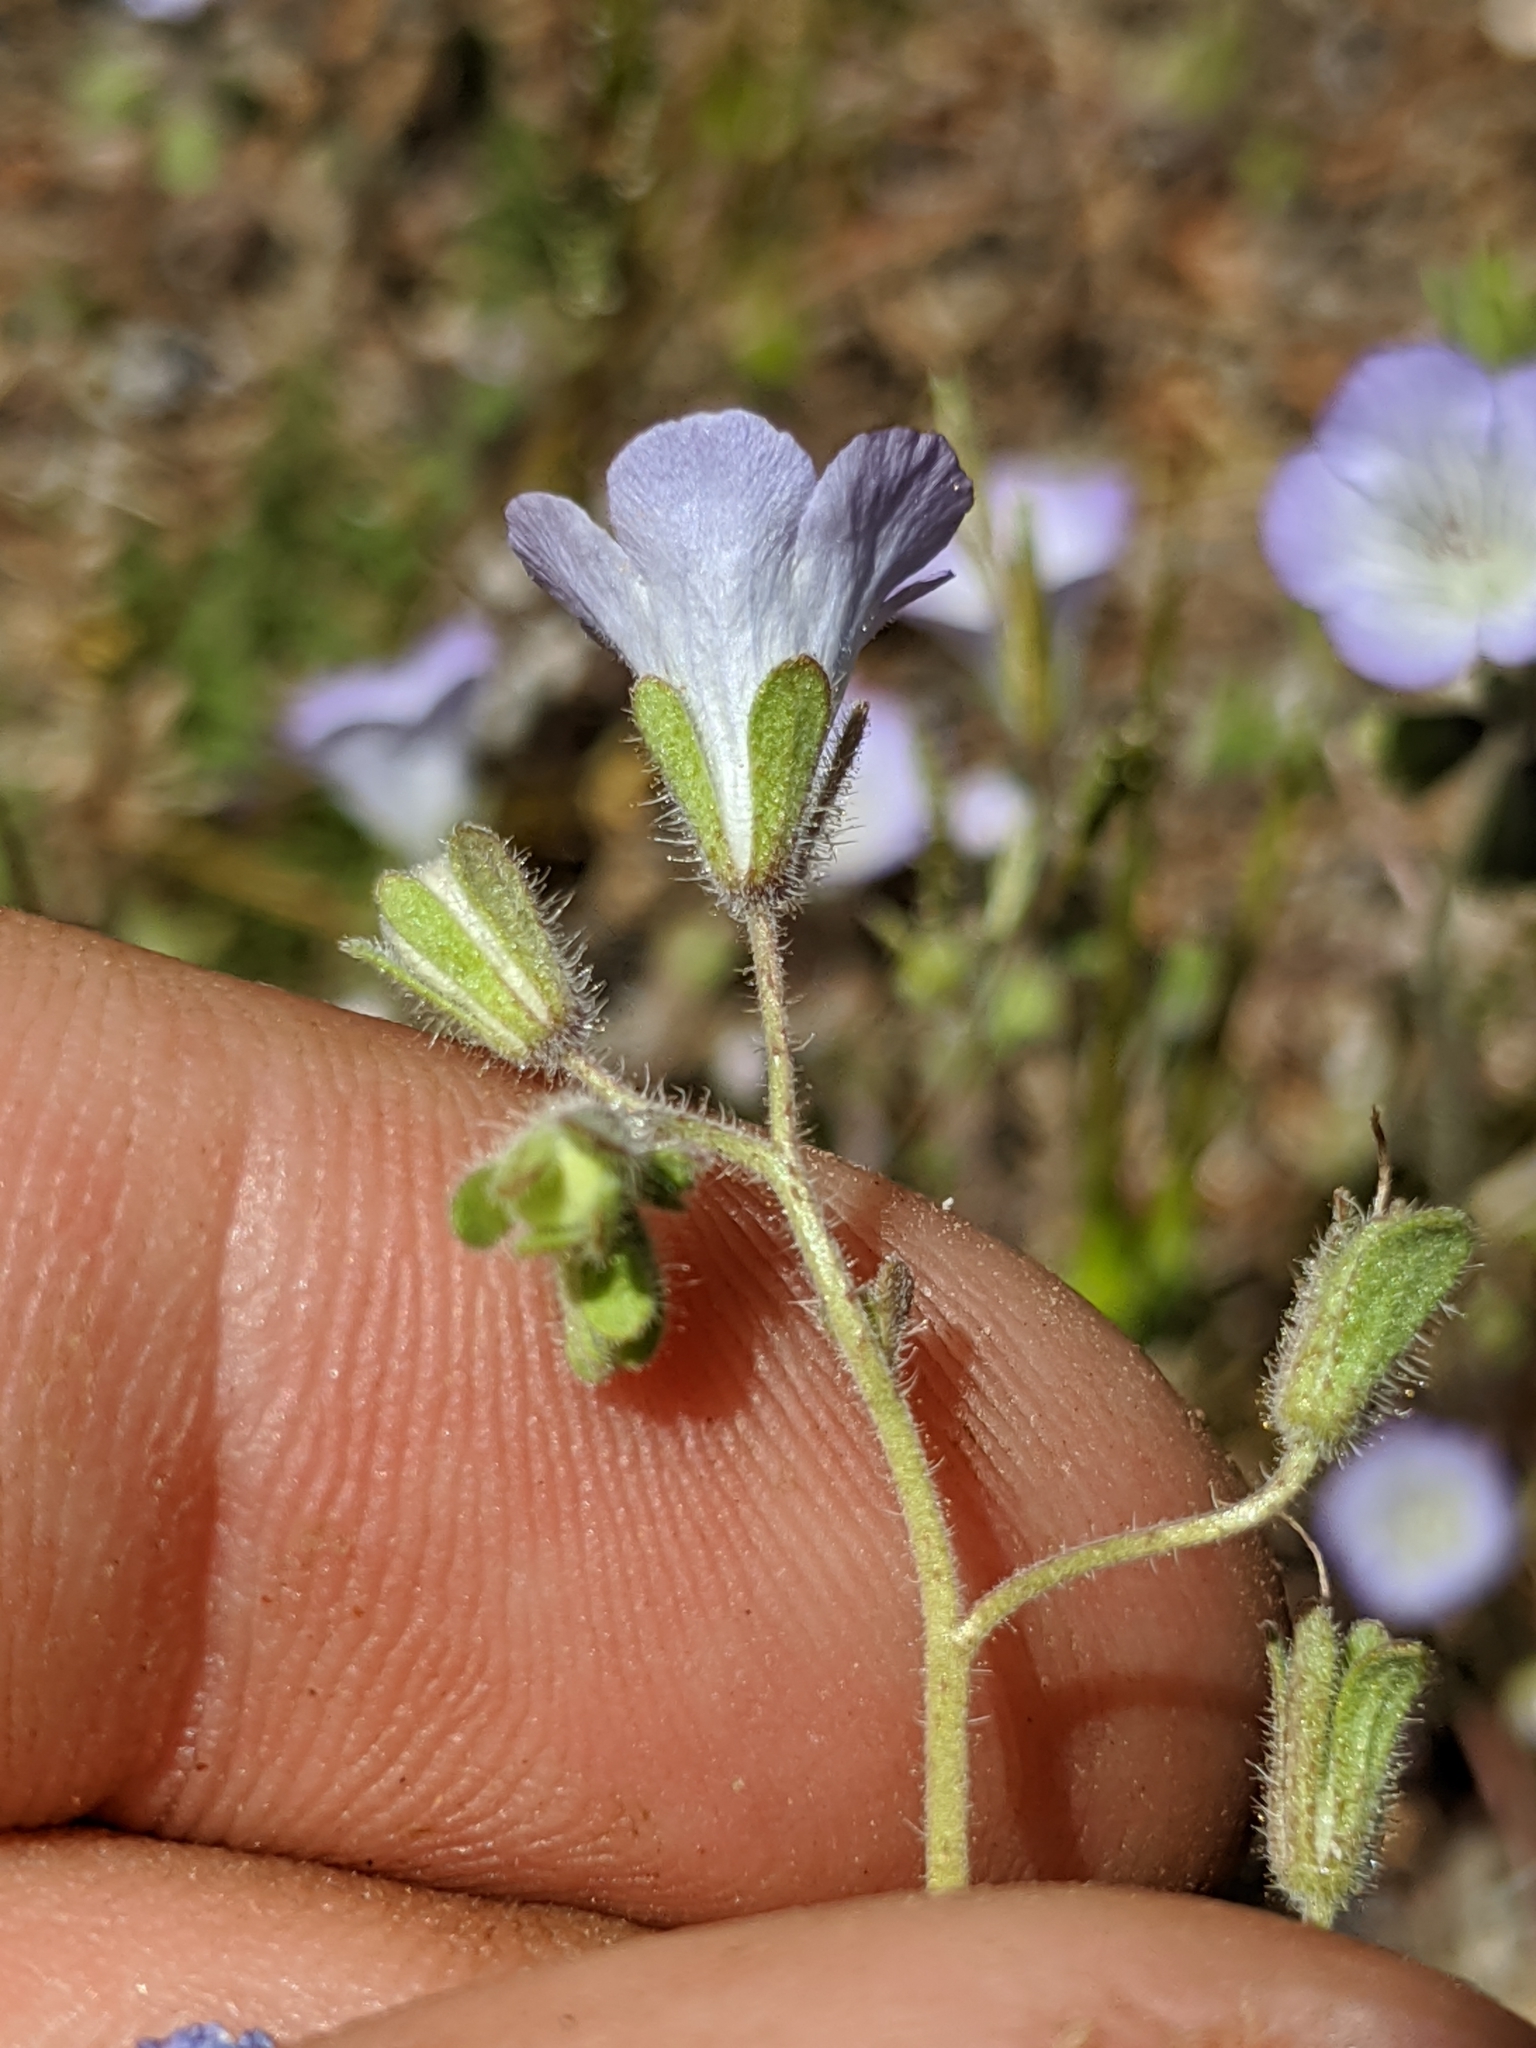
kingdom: Plantae
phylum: Tracheophyta
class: Magnoliopsida
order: Boraginales
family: Hydrophyllaceae
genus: Phacelia
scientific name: Phacelia douglasii
